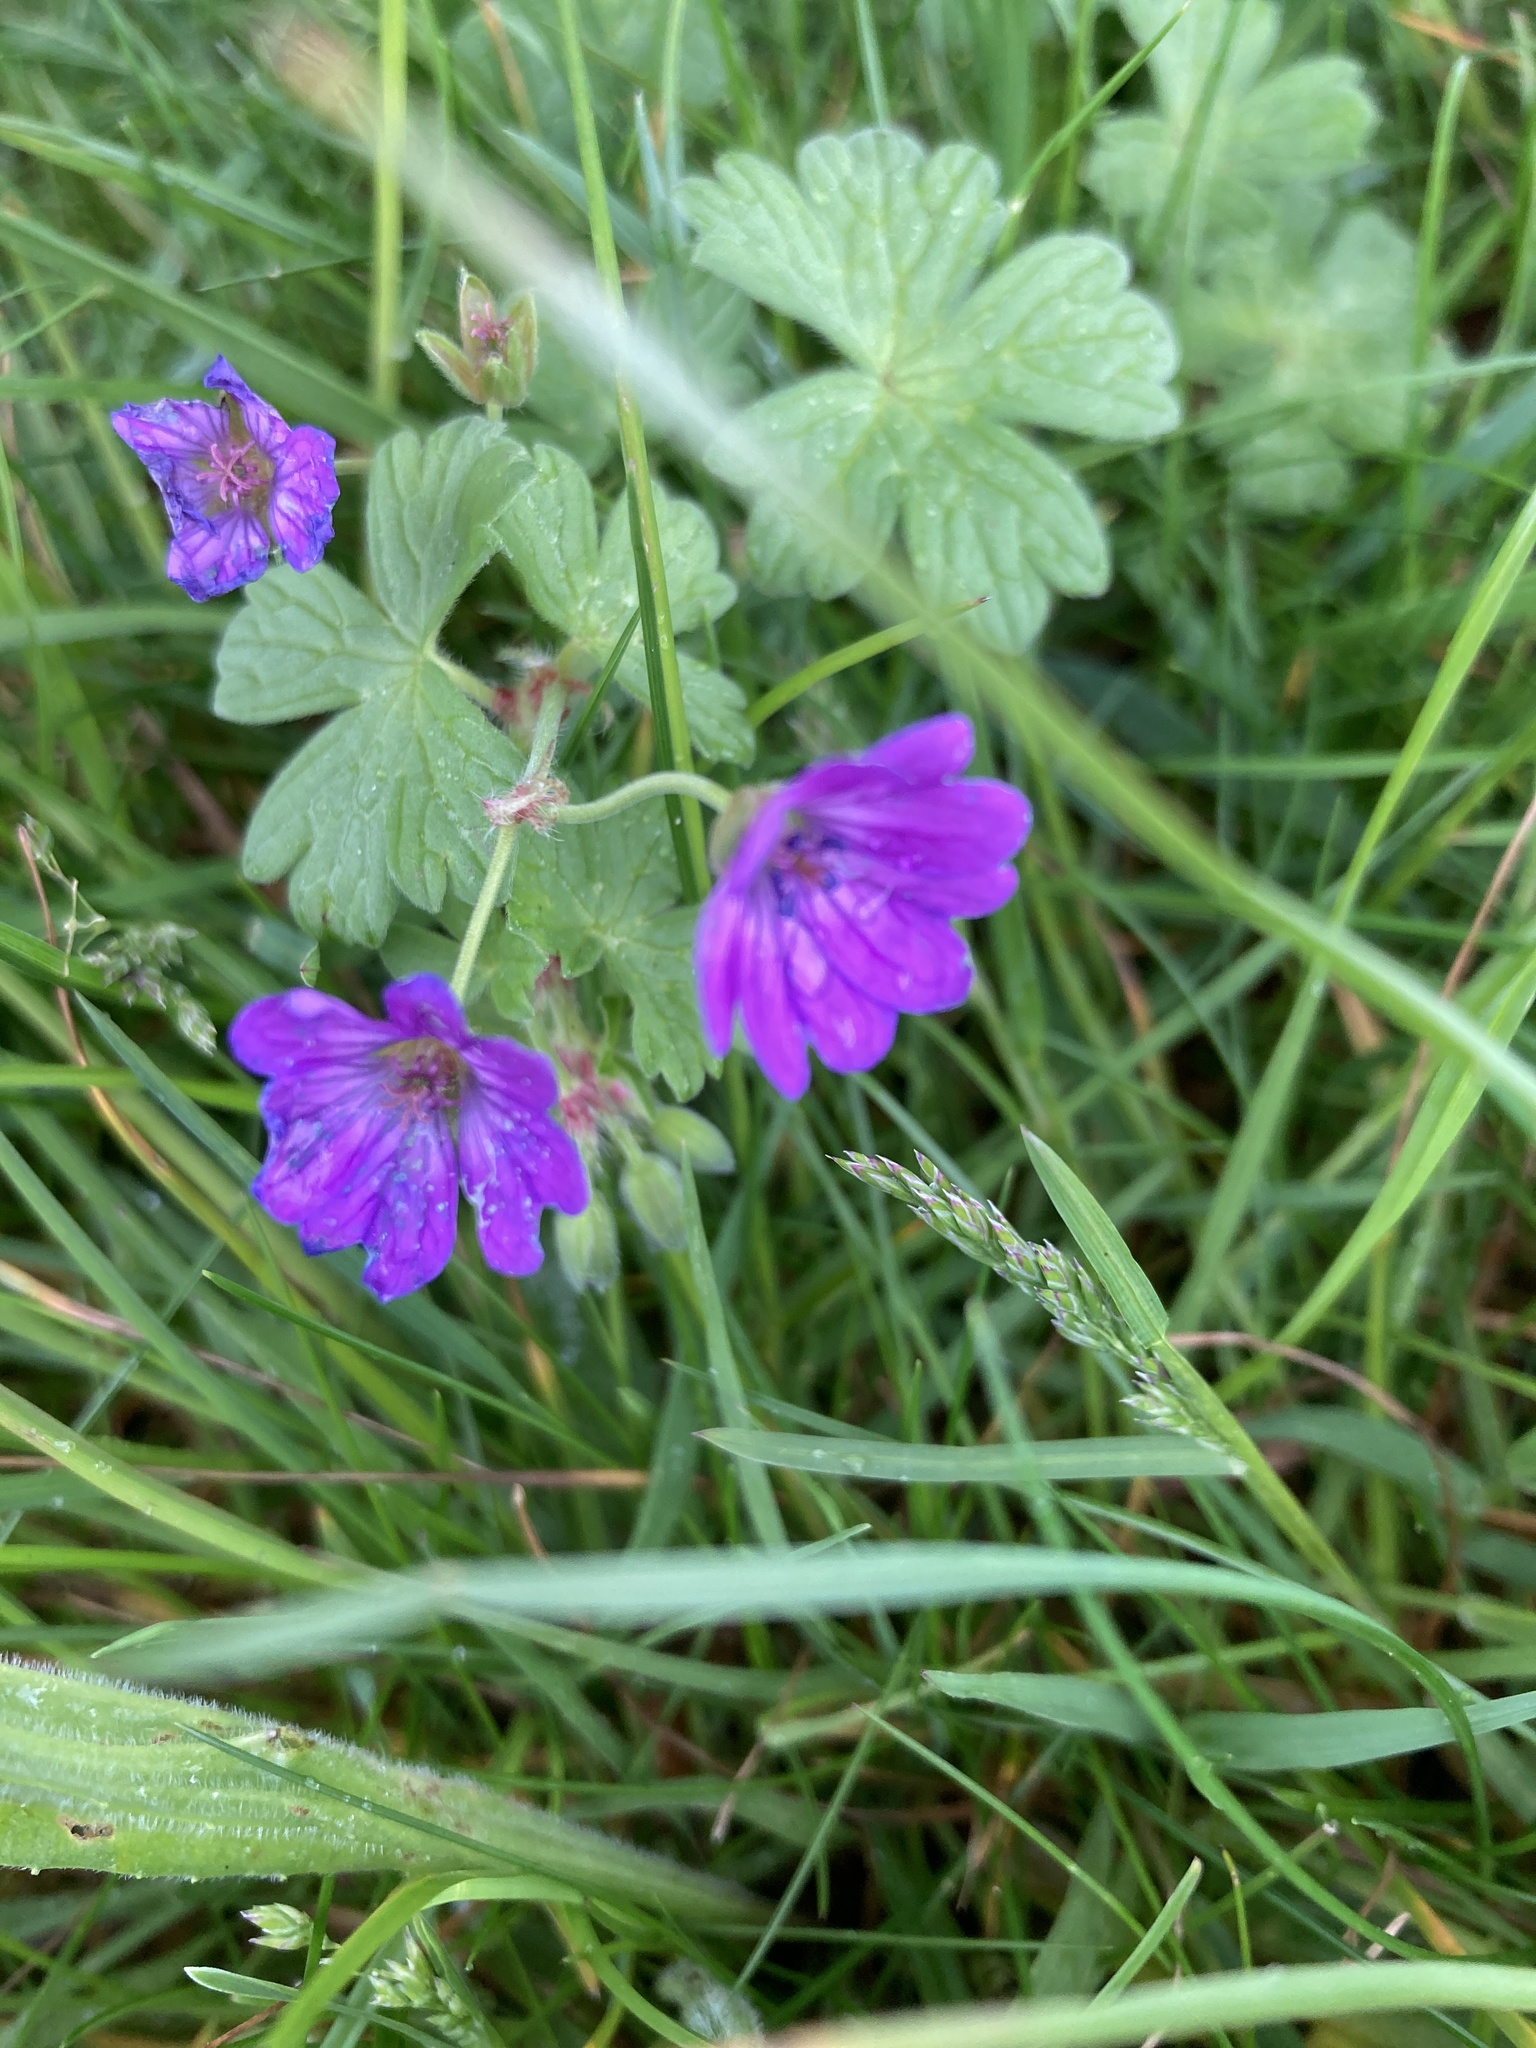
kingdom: Plantae
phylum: Tracheophyta
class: Magnoliopsida
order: Geraniales
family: Geraniaceae
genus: Geranium
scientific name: Geranium pyrenaicum
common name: Hedgerow crane's-bill
